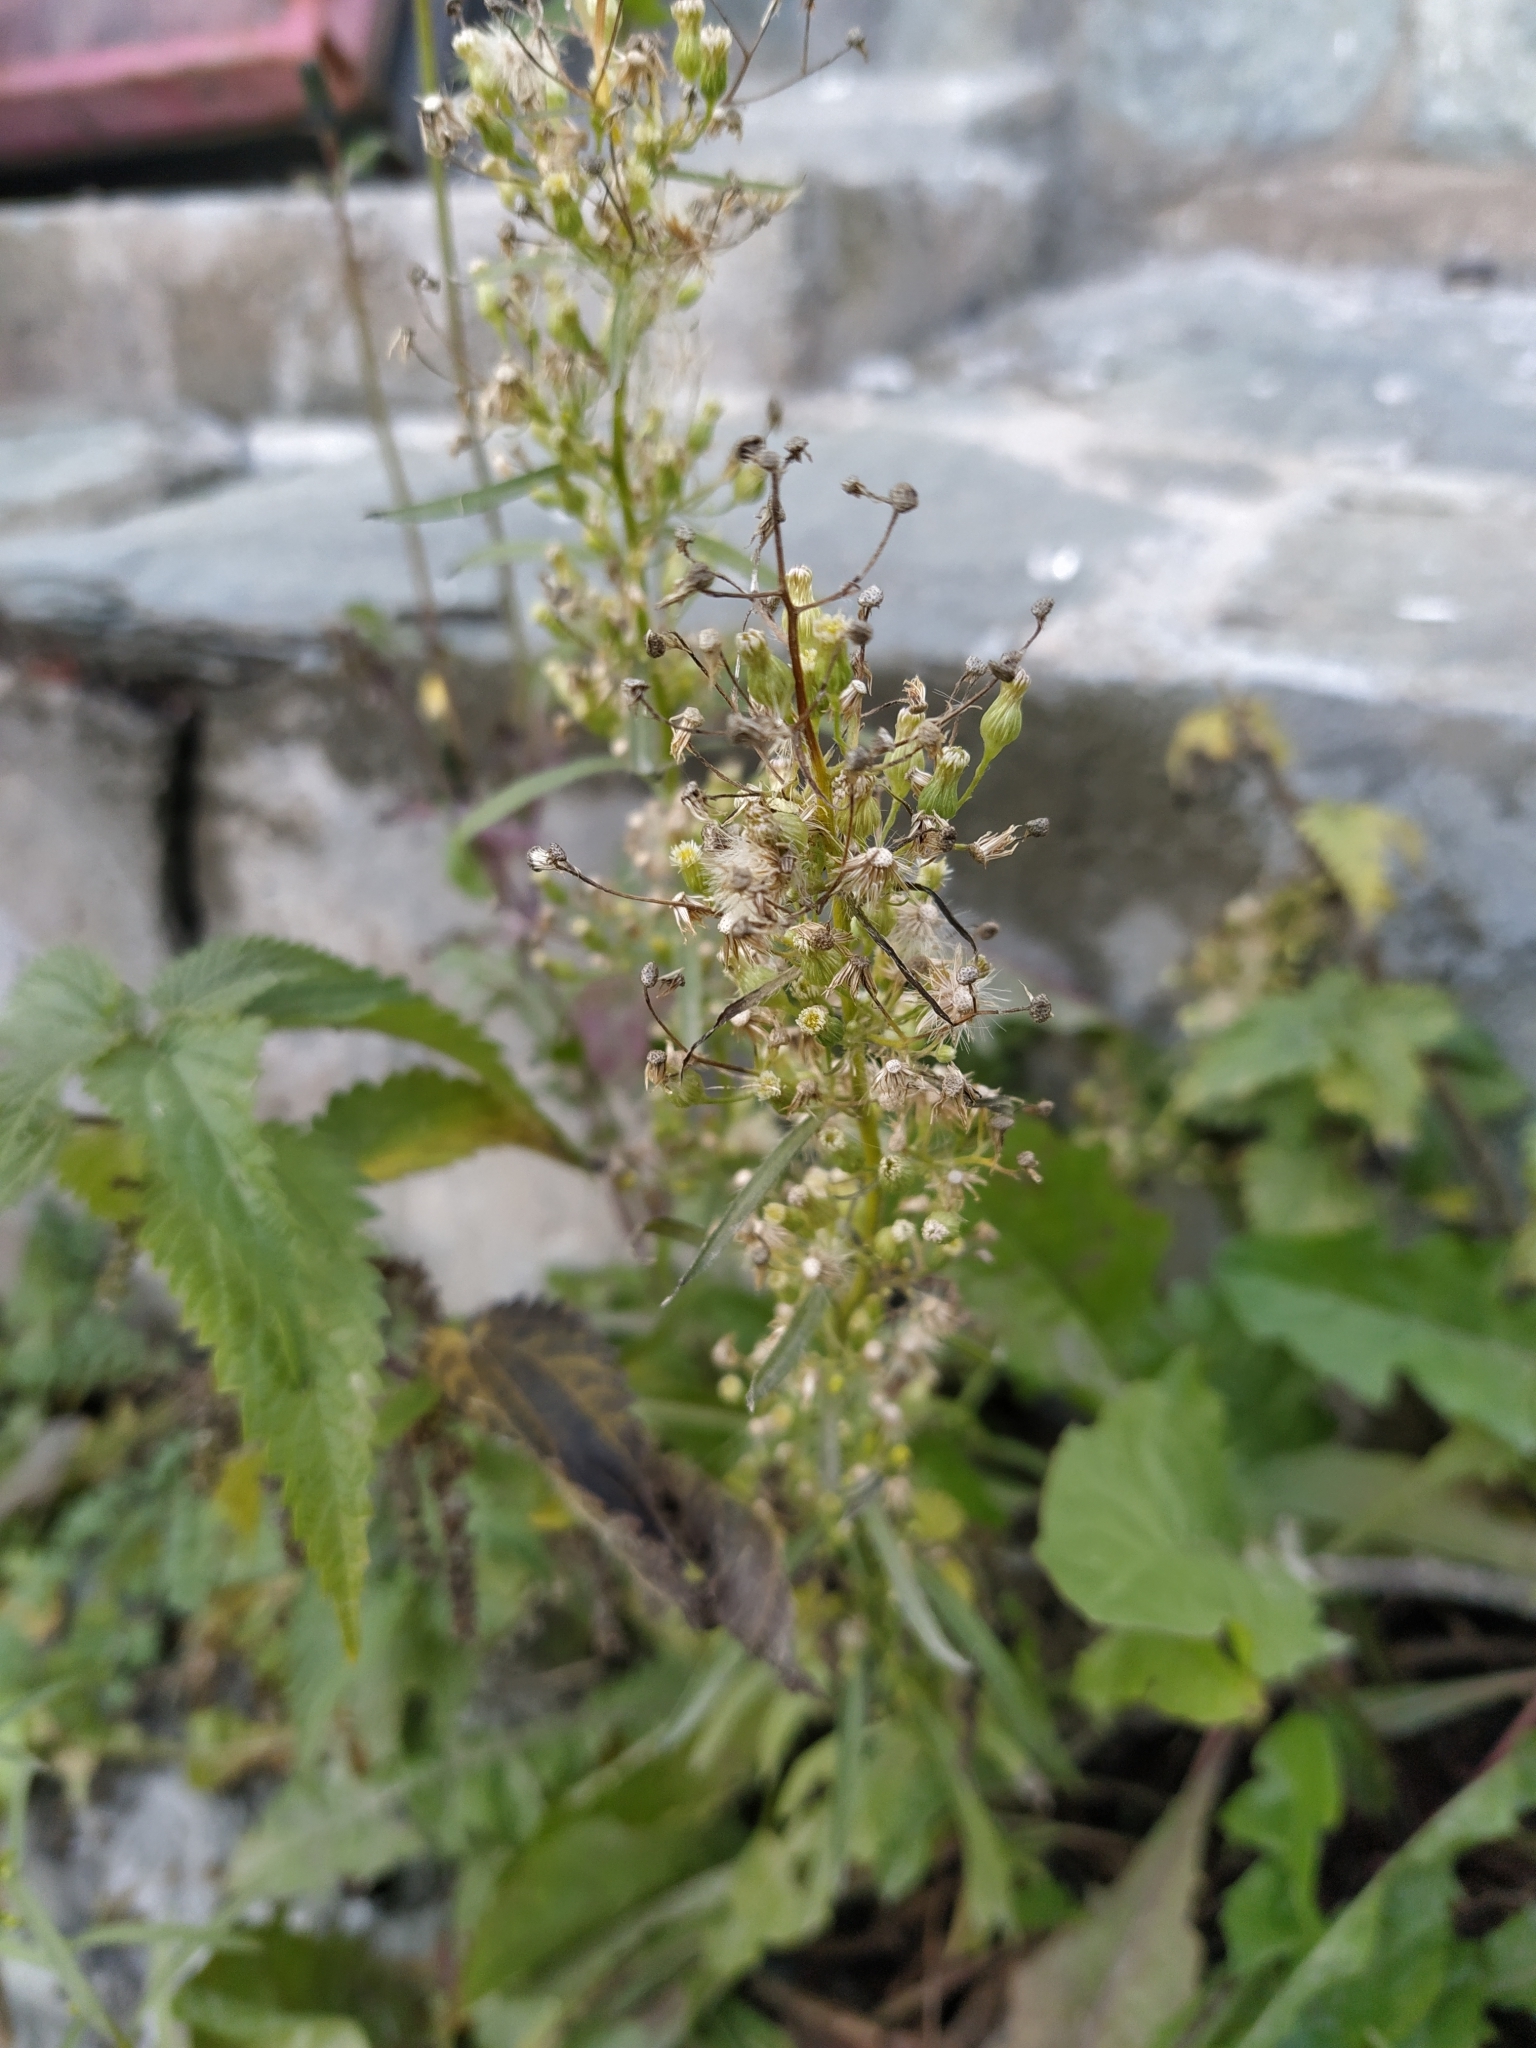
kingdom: Plantae
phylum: Tracheophyta
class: Magnoliopsida
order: Asterales
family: Asteraceae
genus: Erigeron
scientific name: Erigeron canadensis
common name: Canadian fleabane
